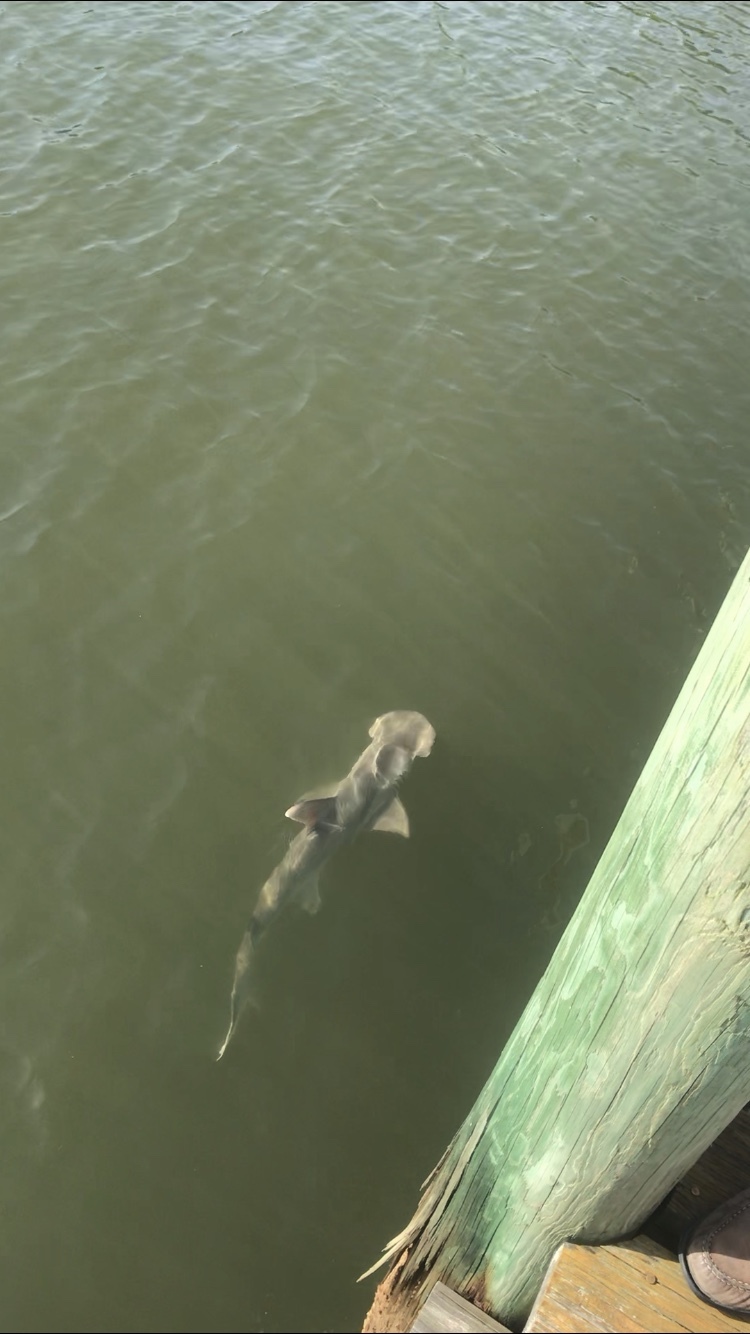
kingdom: Animalia
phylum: Chordata
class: Elasmobranchii
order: Carcharhiniformes
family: Sphyrnidae
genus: Sphyrna
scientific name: Sphyrna tiburo
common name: Bonnethead
